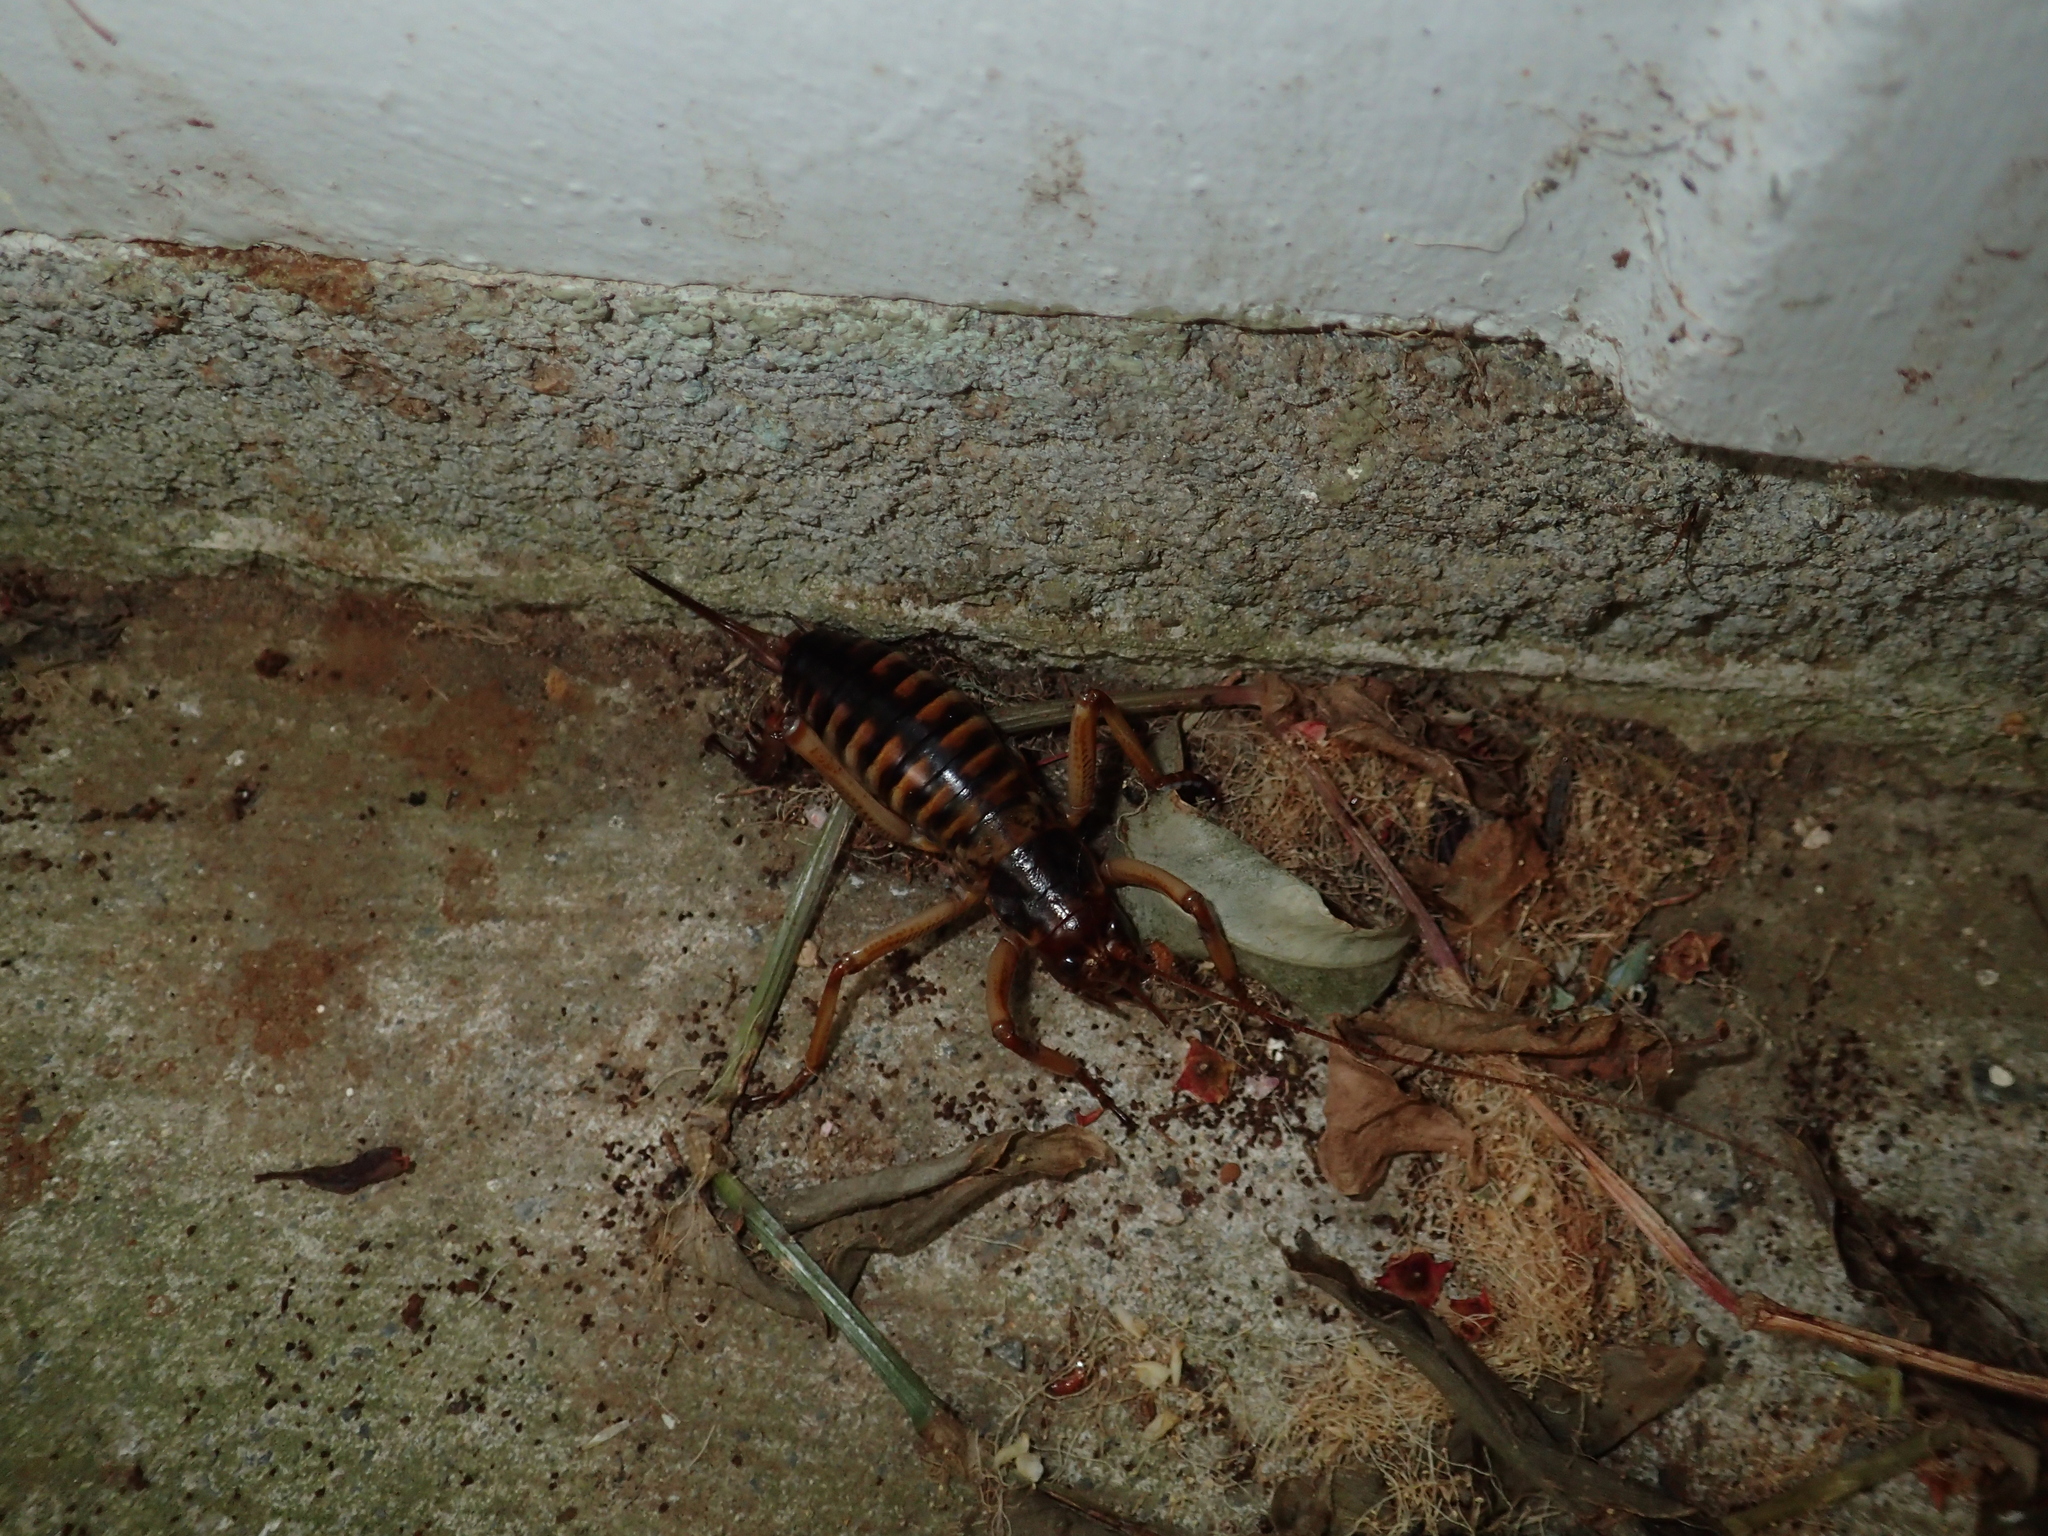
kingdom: Animalia
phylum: Arthropoda
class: Insecta
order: Orthoptera
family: Anostostomatidae
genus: Hemideina
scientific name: Hemideina crassidens
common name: Wellington tree weta
